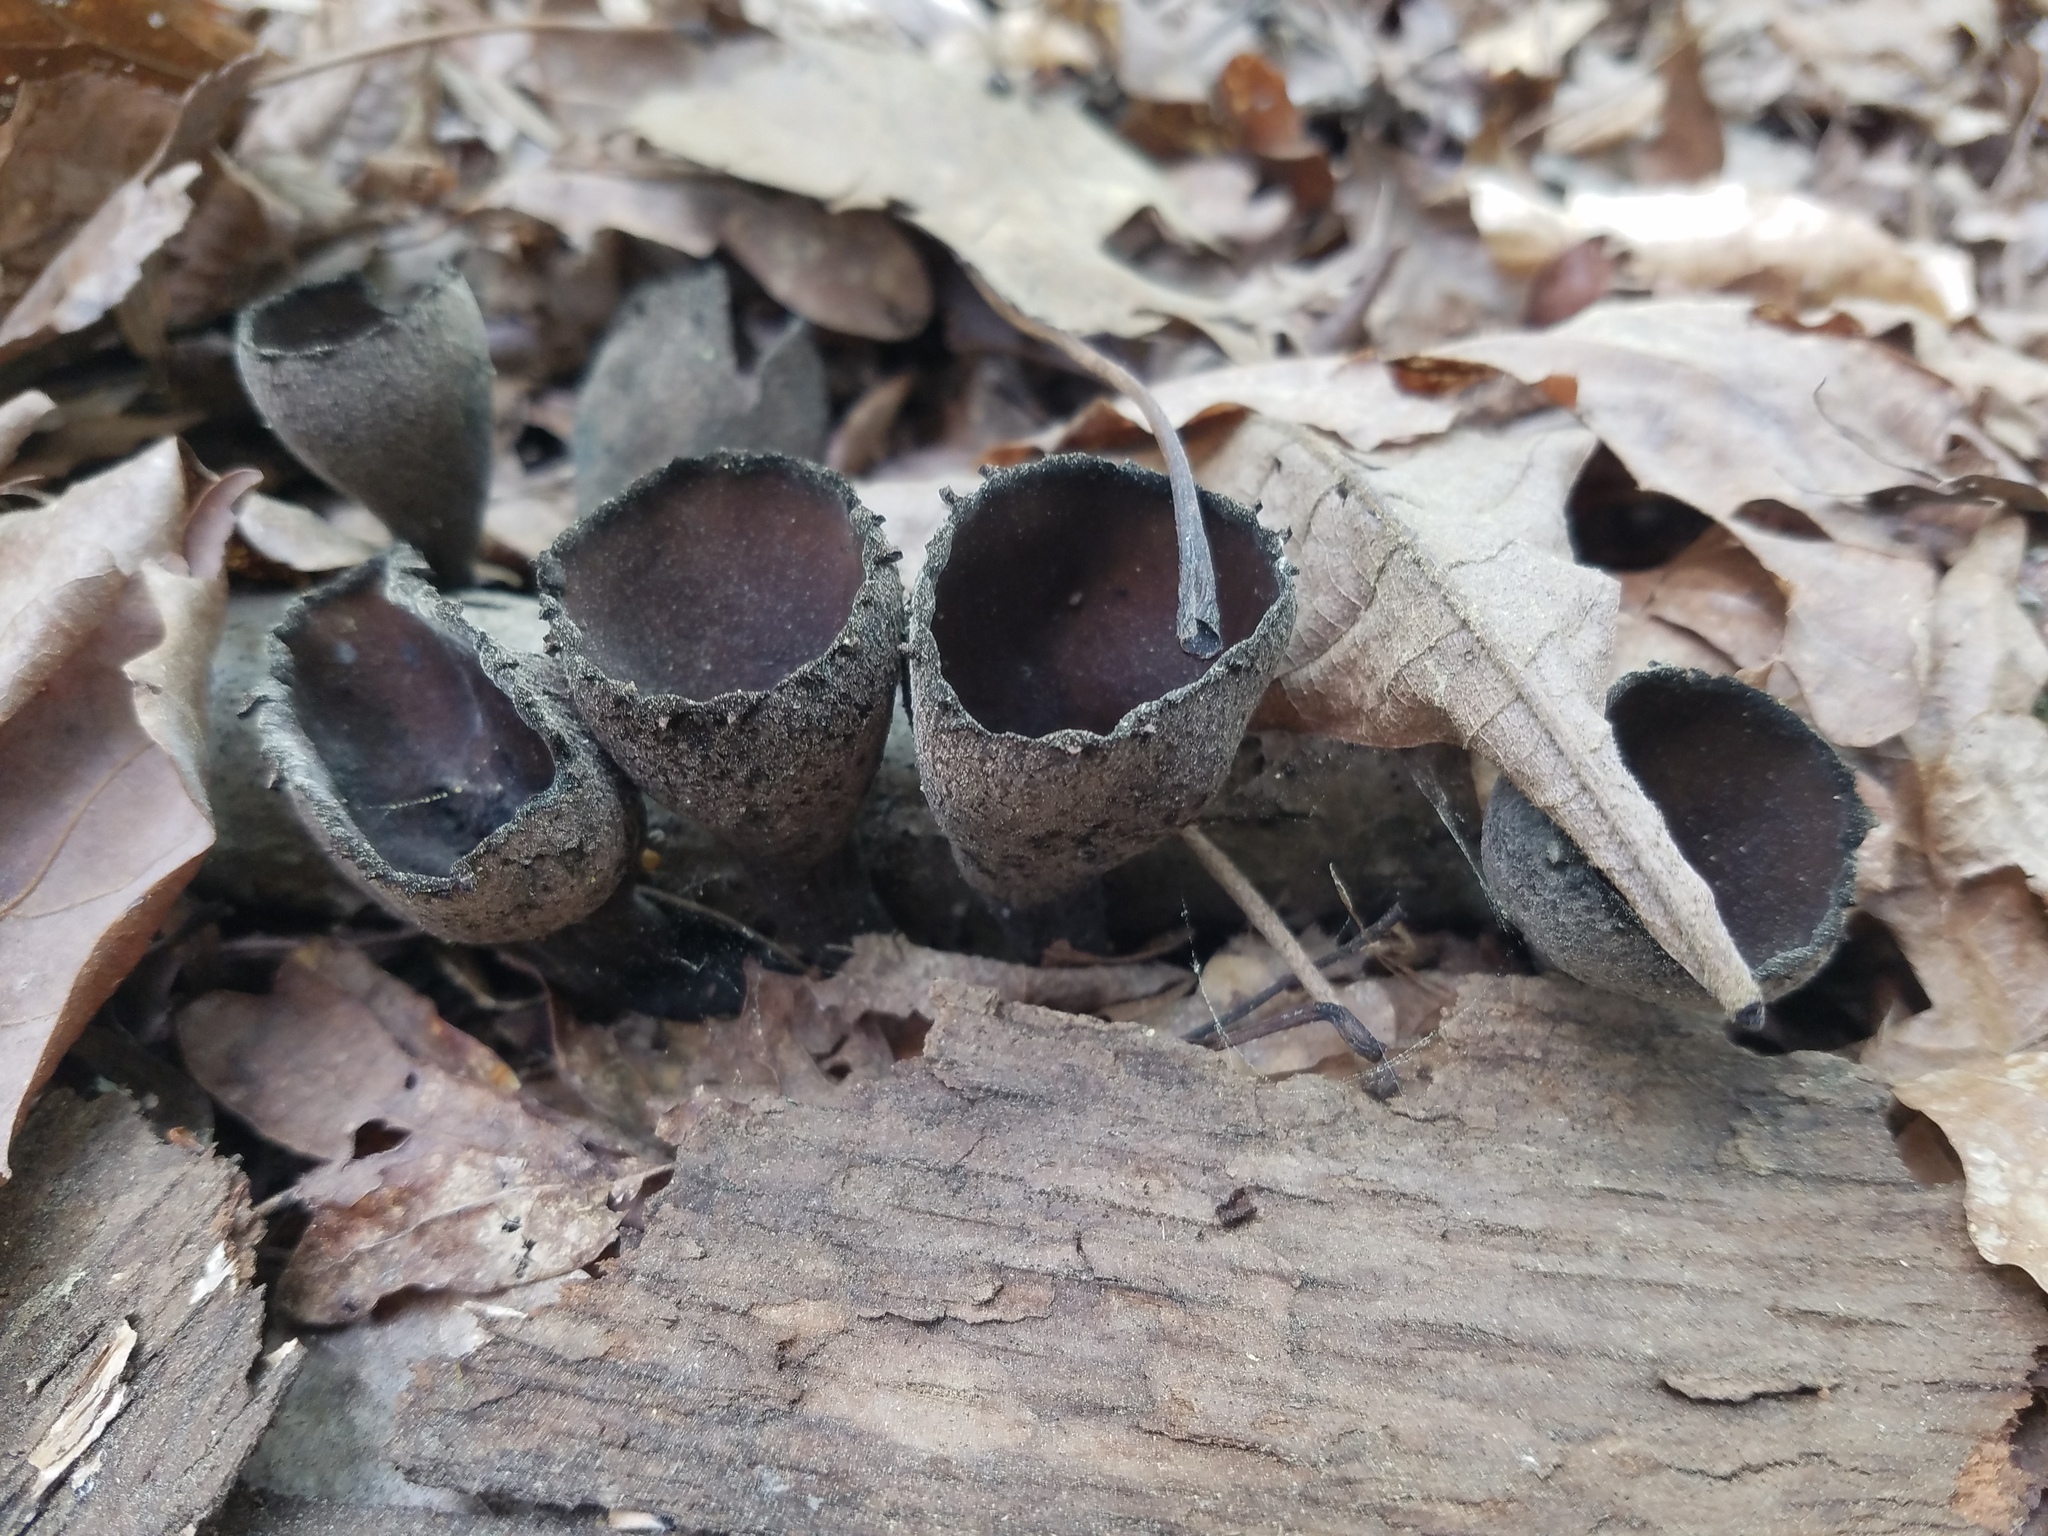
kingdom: Fungi
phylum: Ascomycota
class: Pezizomycetes
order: Pezizales
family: Sarcosomataceae
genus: Urnula
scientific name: Urnula craterium
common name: Devil's urn
